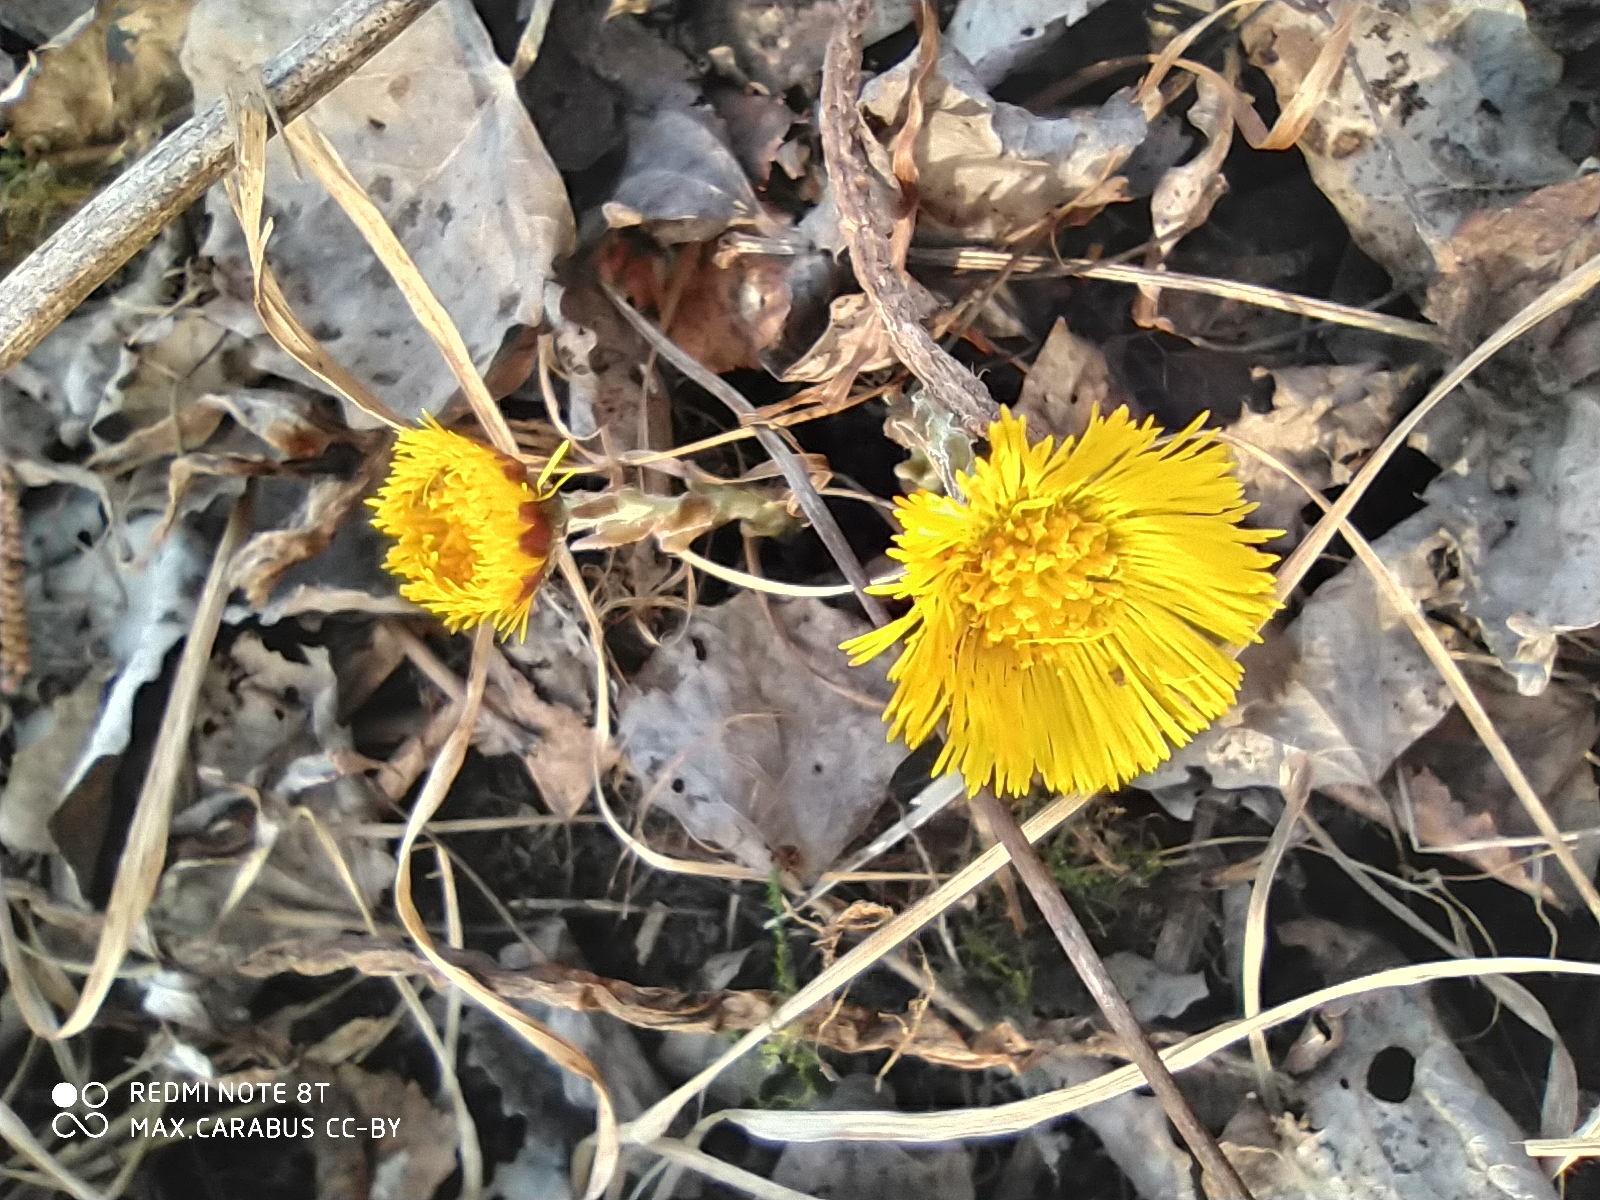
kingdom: Plantae
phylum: Tracheophyta
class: Magnoliopsida
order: Asterales
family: Asteraceae
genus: Tussilago
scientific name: Tussilago farfara
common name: Coltsfoot
